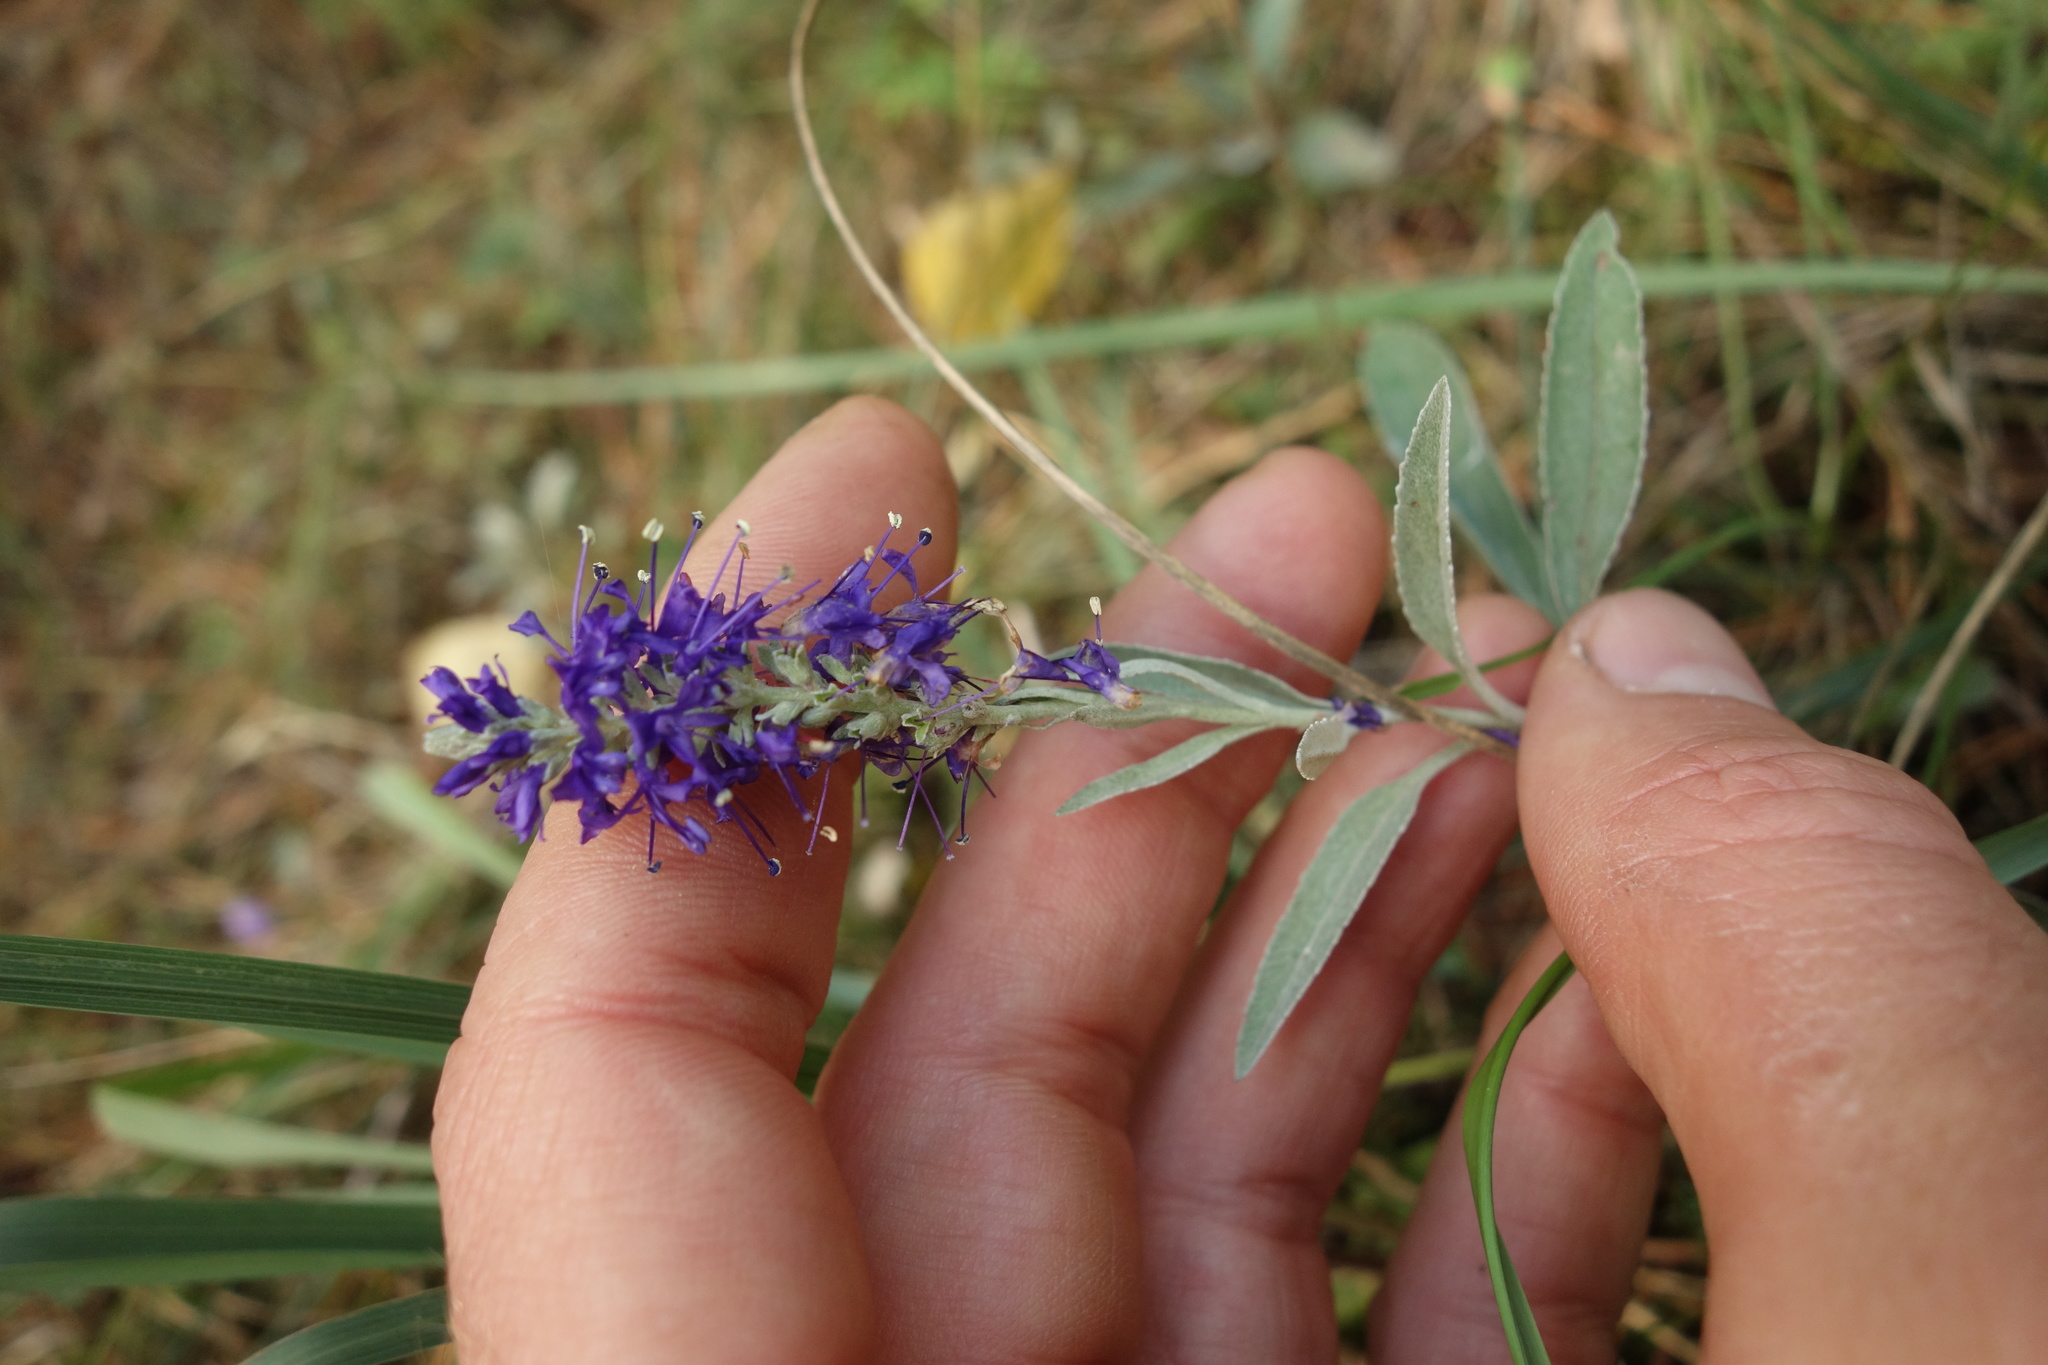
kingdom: Plantae
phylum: Tracheophyta
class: Magnoliopsida
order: Lamiales
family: Plantaginaceae
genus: Veronica
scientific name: Veronica incana
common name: Silver speedwell
